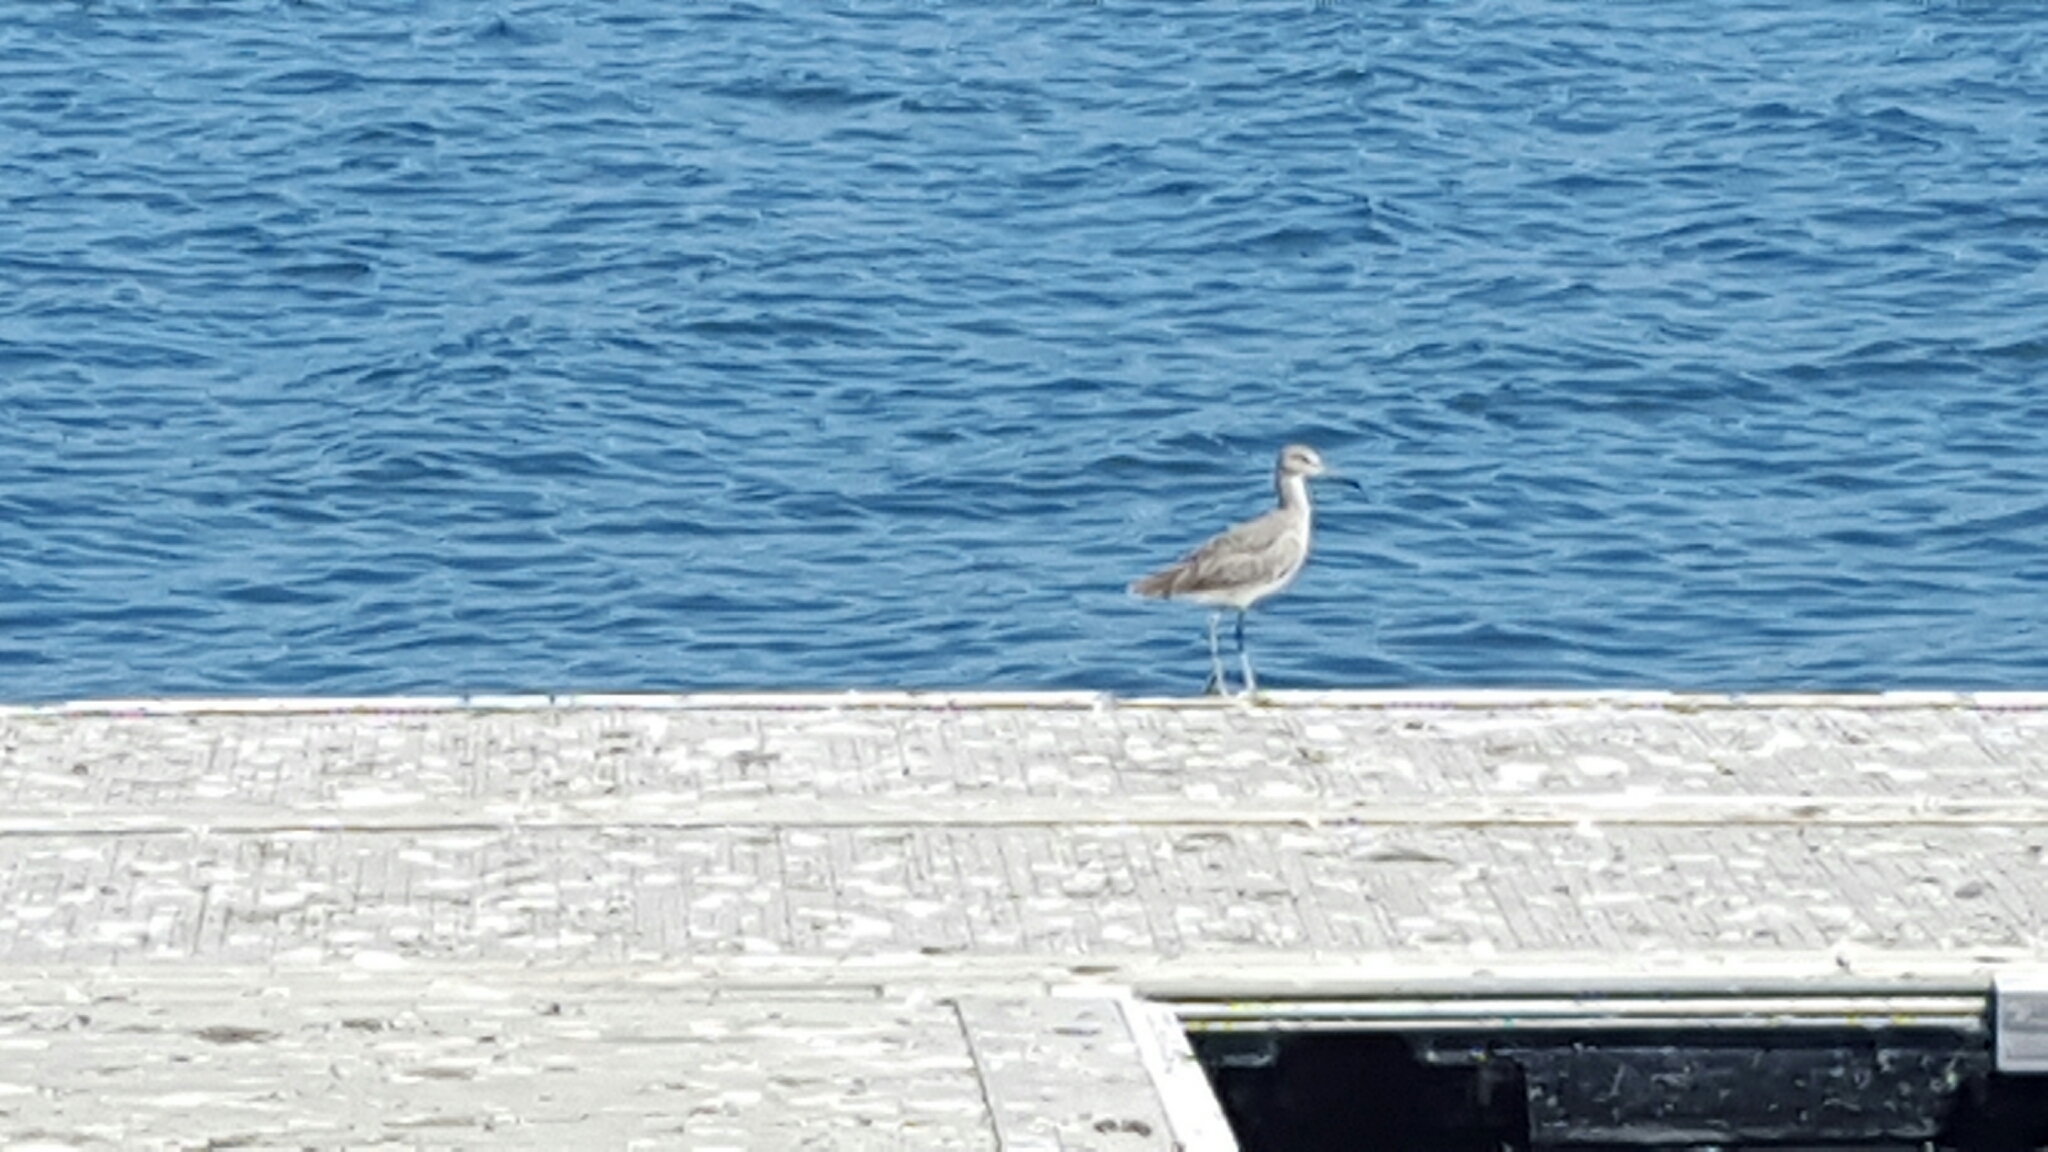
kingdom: Animalia
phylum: Chordata
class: Aves
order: Charadriiformes
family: Scolopacidae
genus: Tringa
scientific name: Tringa semipalmata
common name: Willet
